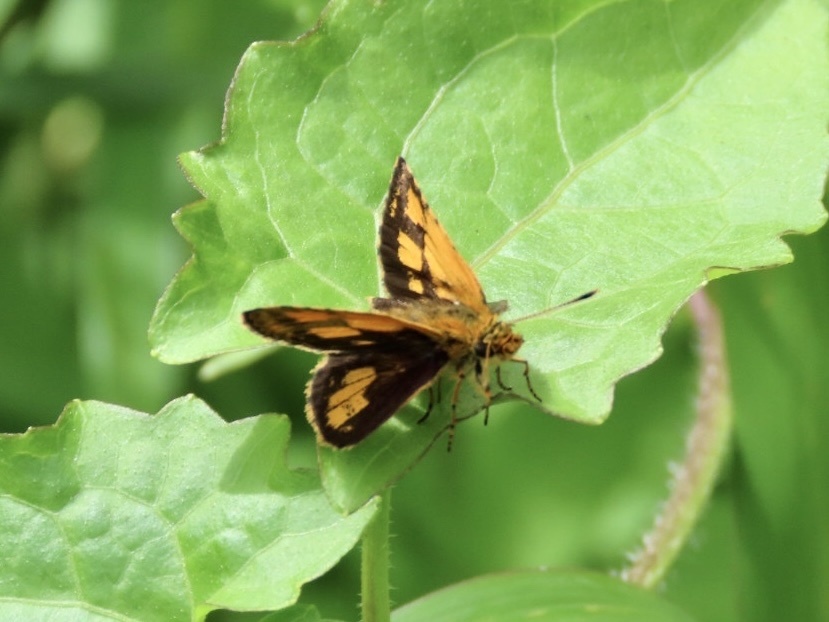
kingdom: Animalia
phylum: Arthropoda
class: Insecta
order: Lepidoptera
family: Hesperiidae
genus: Ampittia
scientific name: Ampittia dioscorides
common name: Common bush hopper
